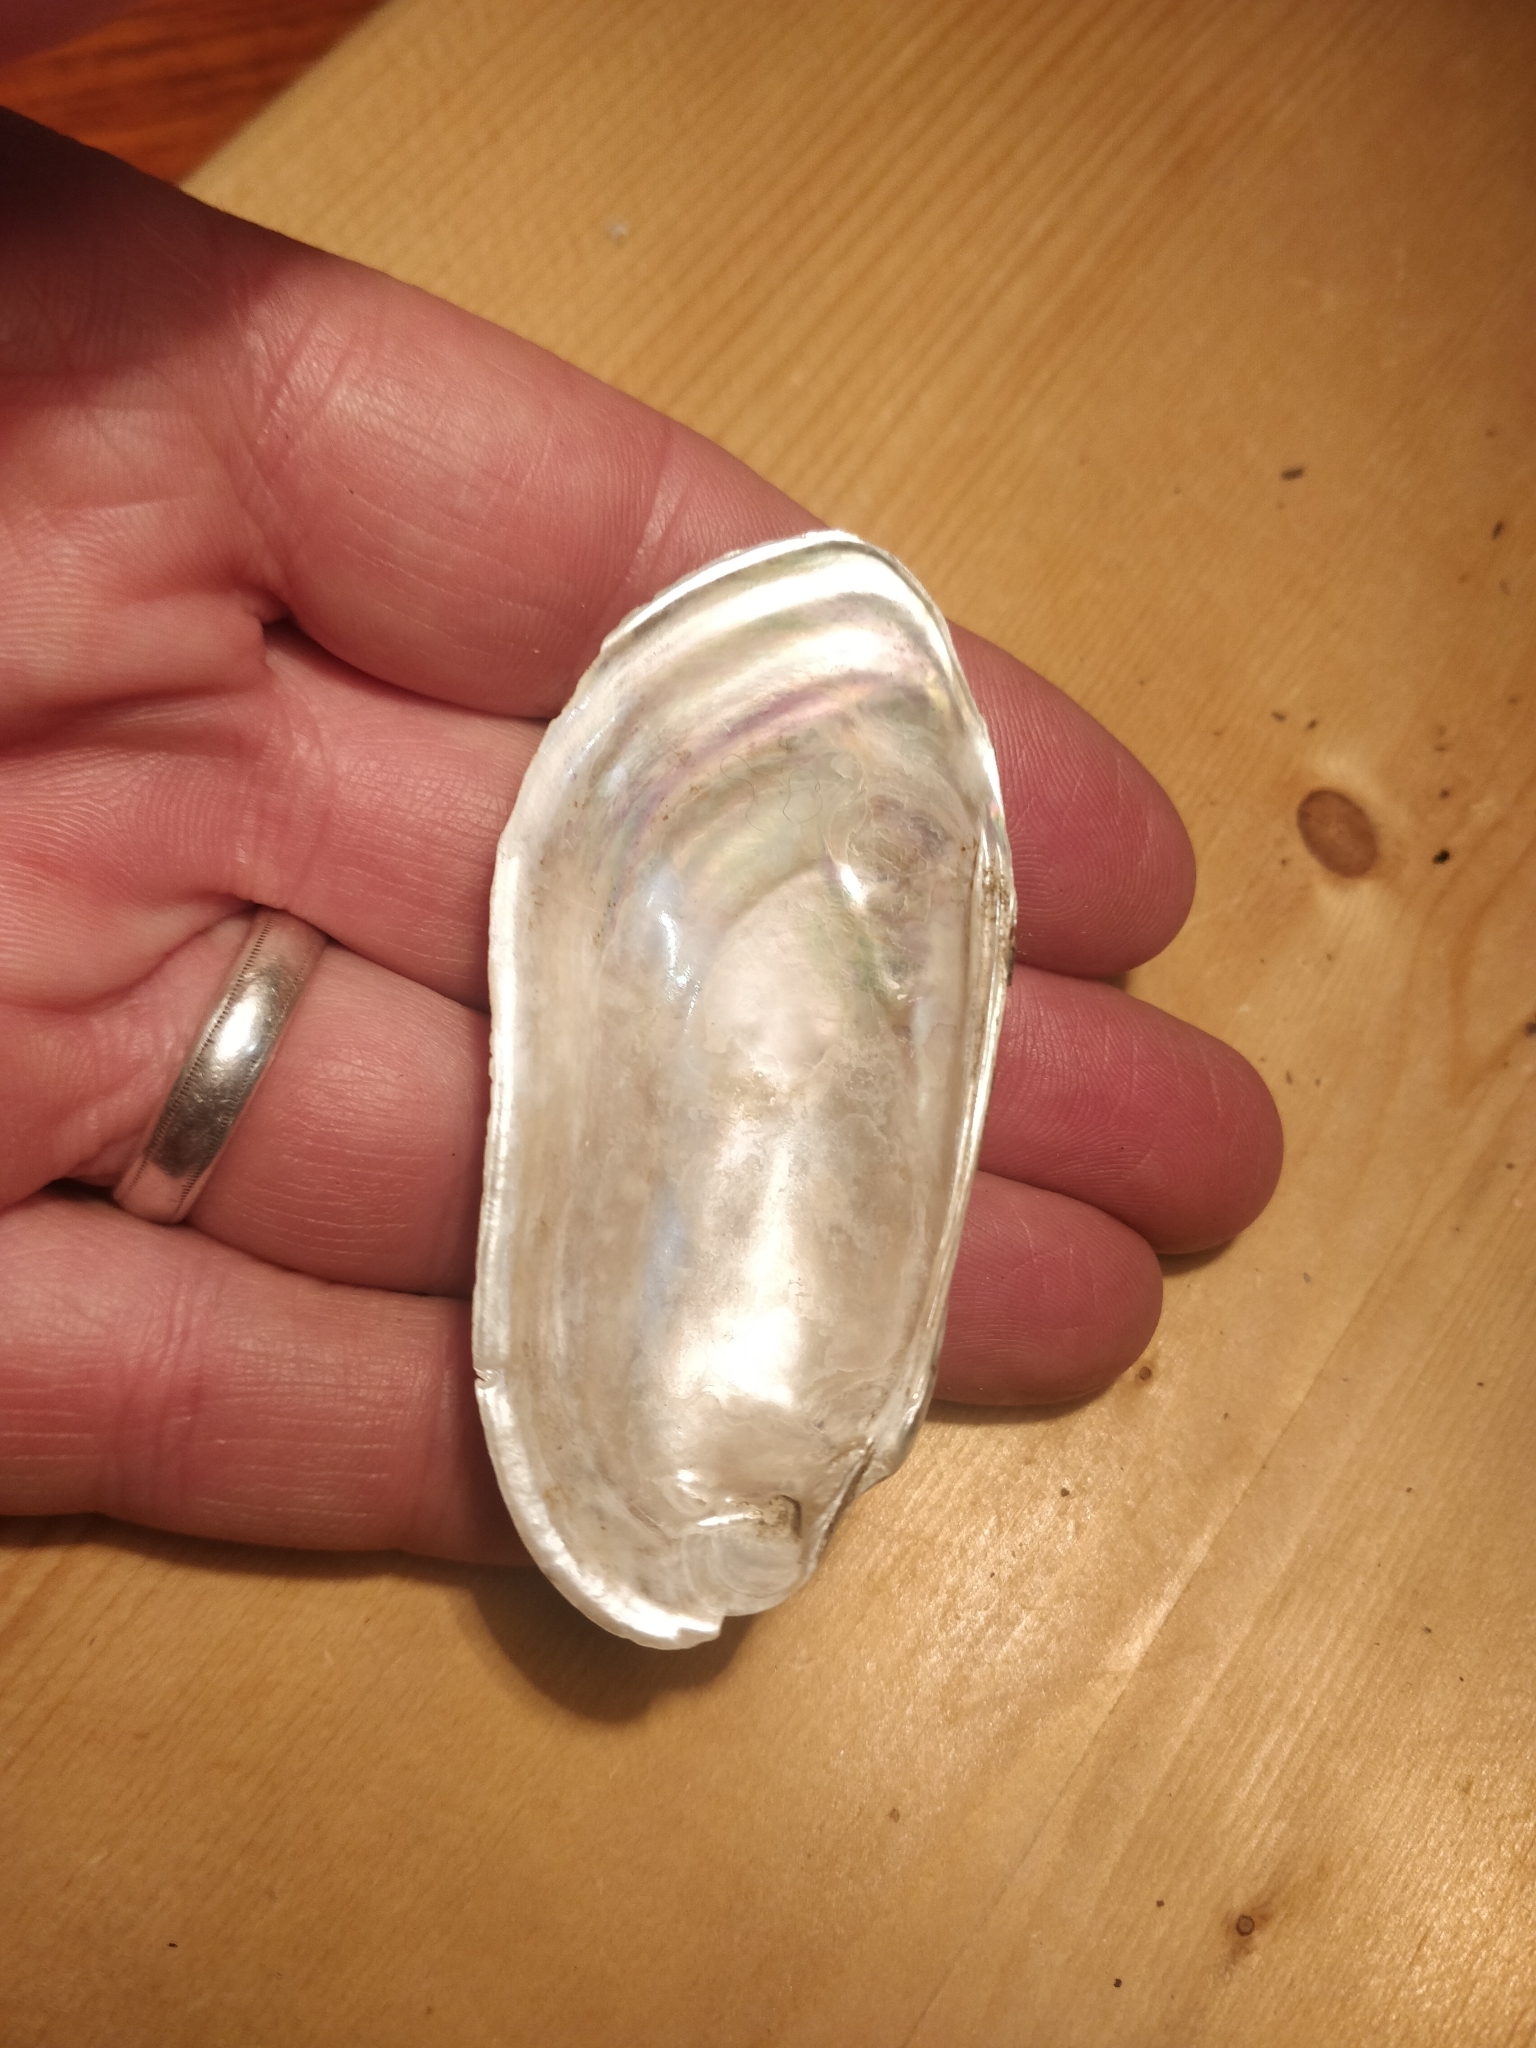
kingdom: Animalia
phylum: Mollusca
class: Bivalvia
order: Unionida
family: Unionidae
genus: Lampsilis
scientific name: Lampsilis teres
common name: Yellow sandshell
